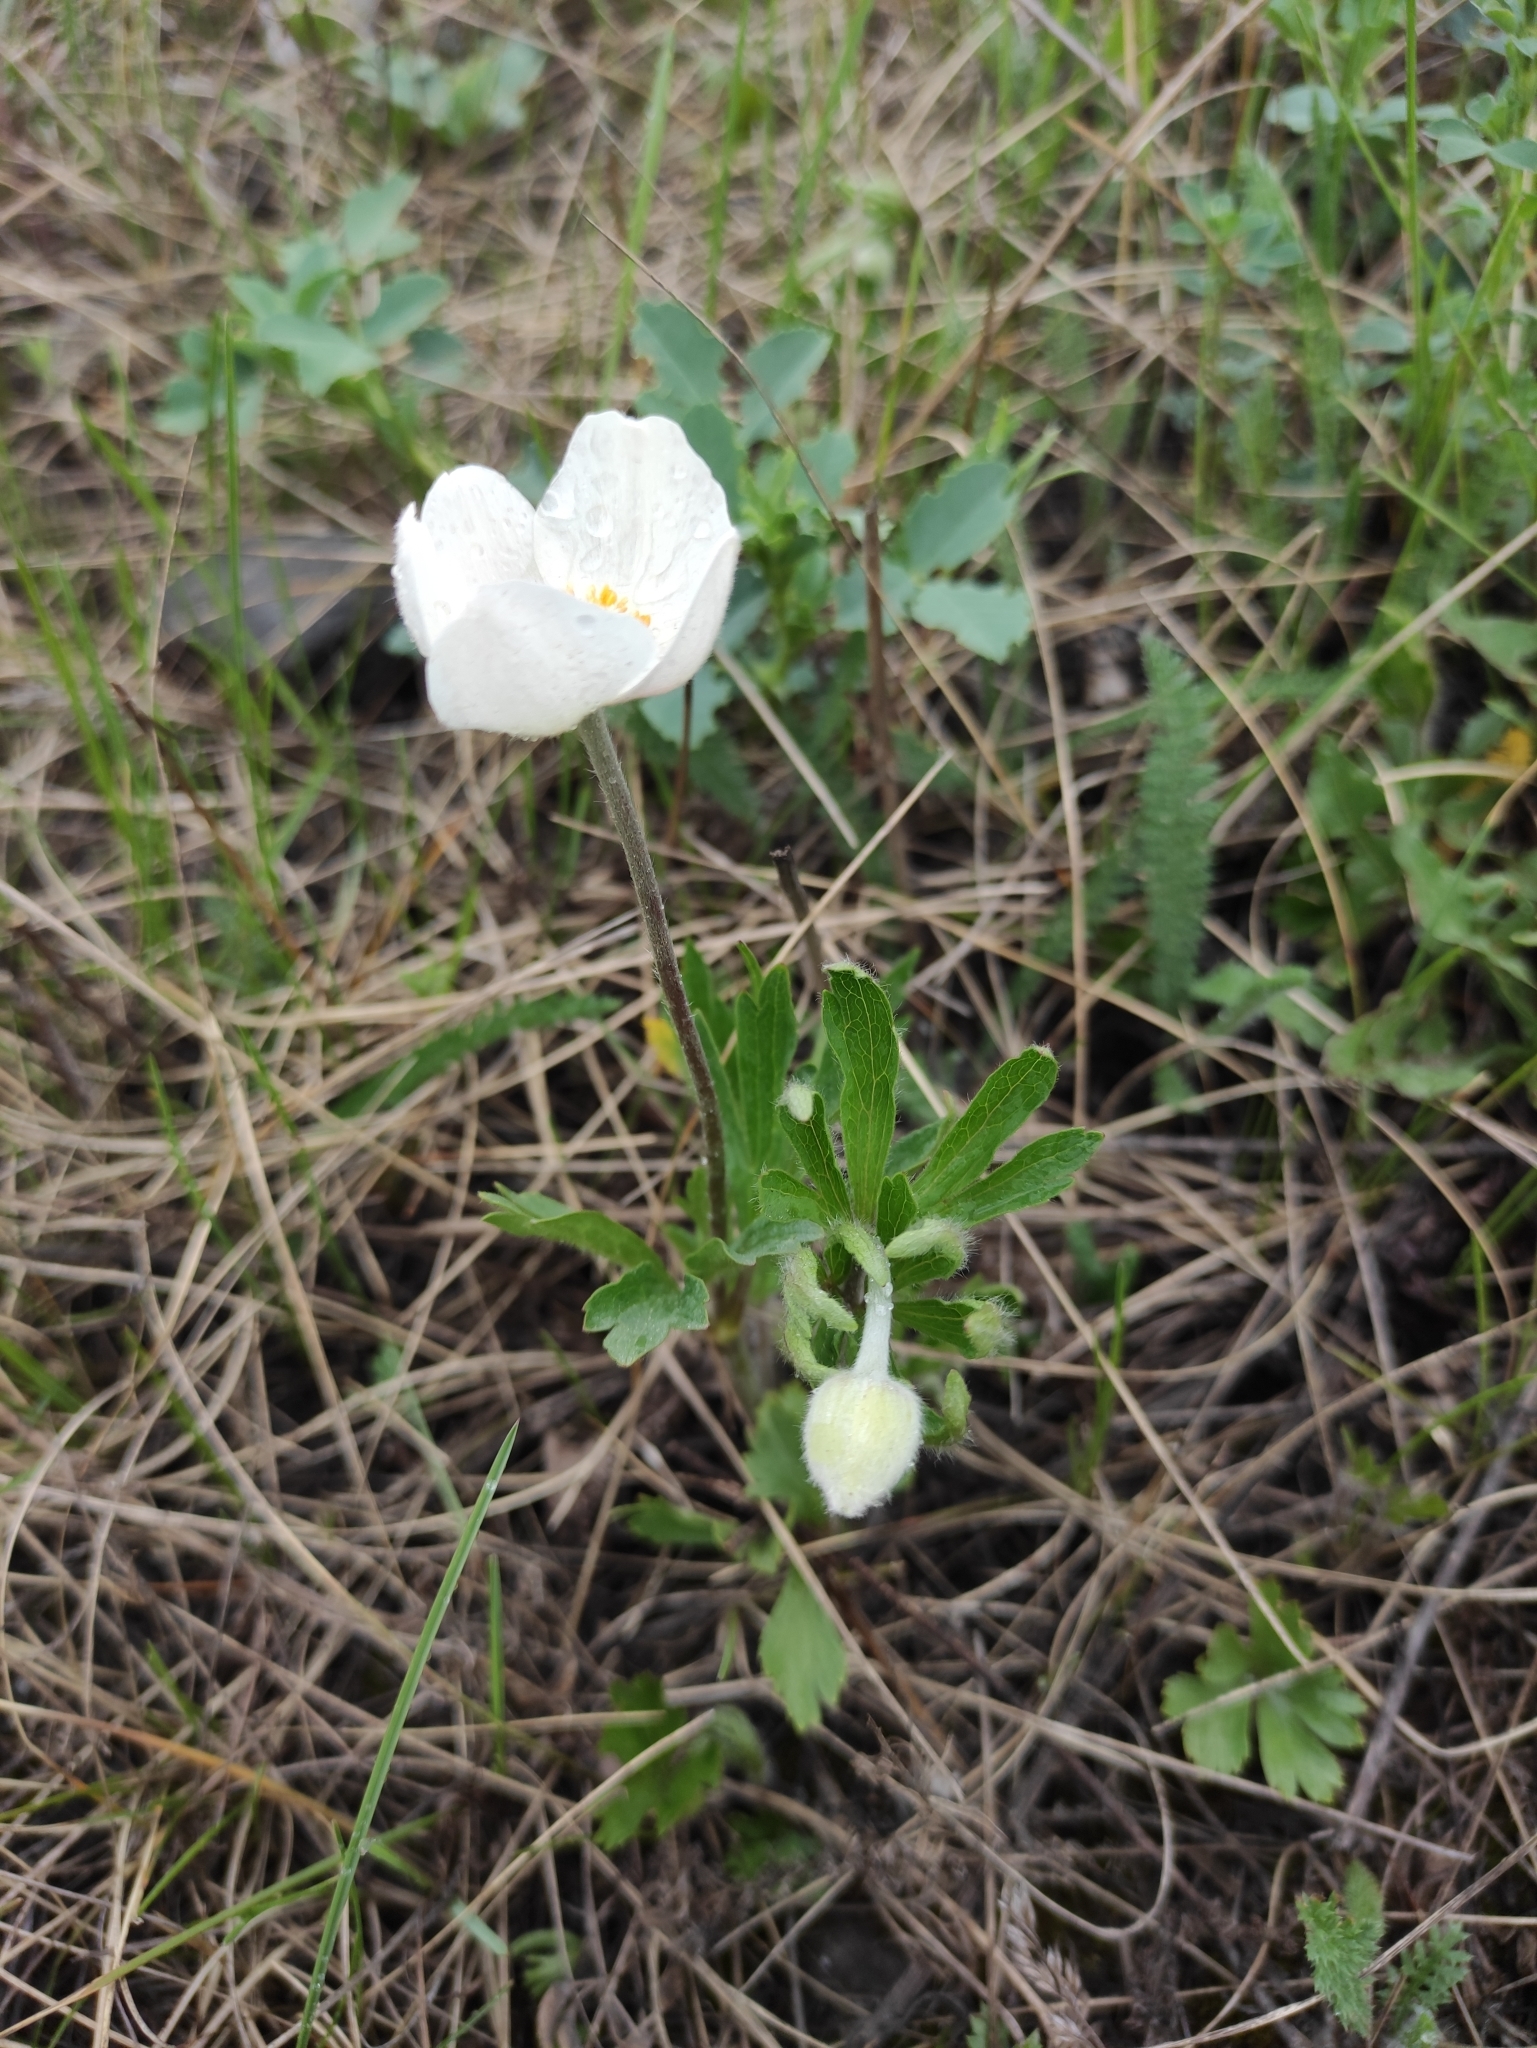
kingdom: Plantae
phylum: Tracheophyta
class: Magnoliopsida
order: Ranunculales
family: Ranunculaceae
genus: Anemone
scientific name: Anemone sylvestris
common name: Snowdrop anemone
